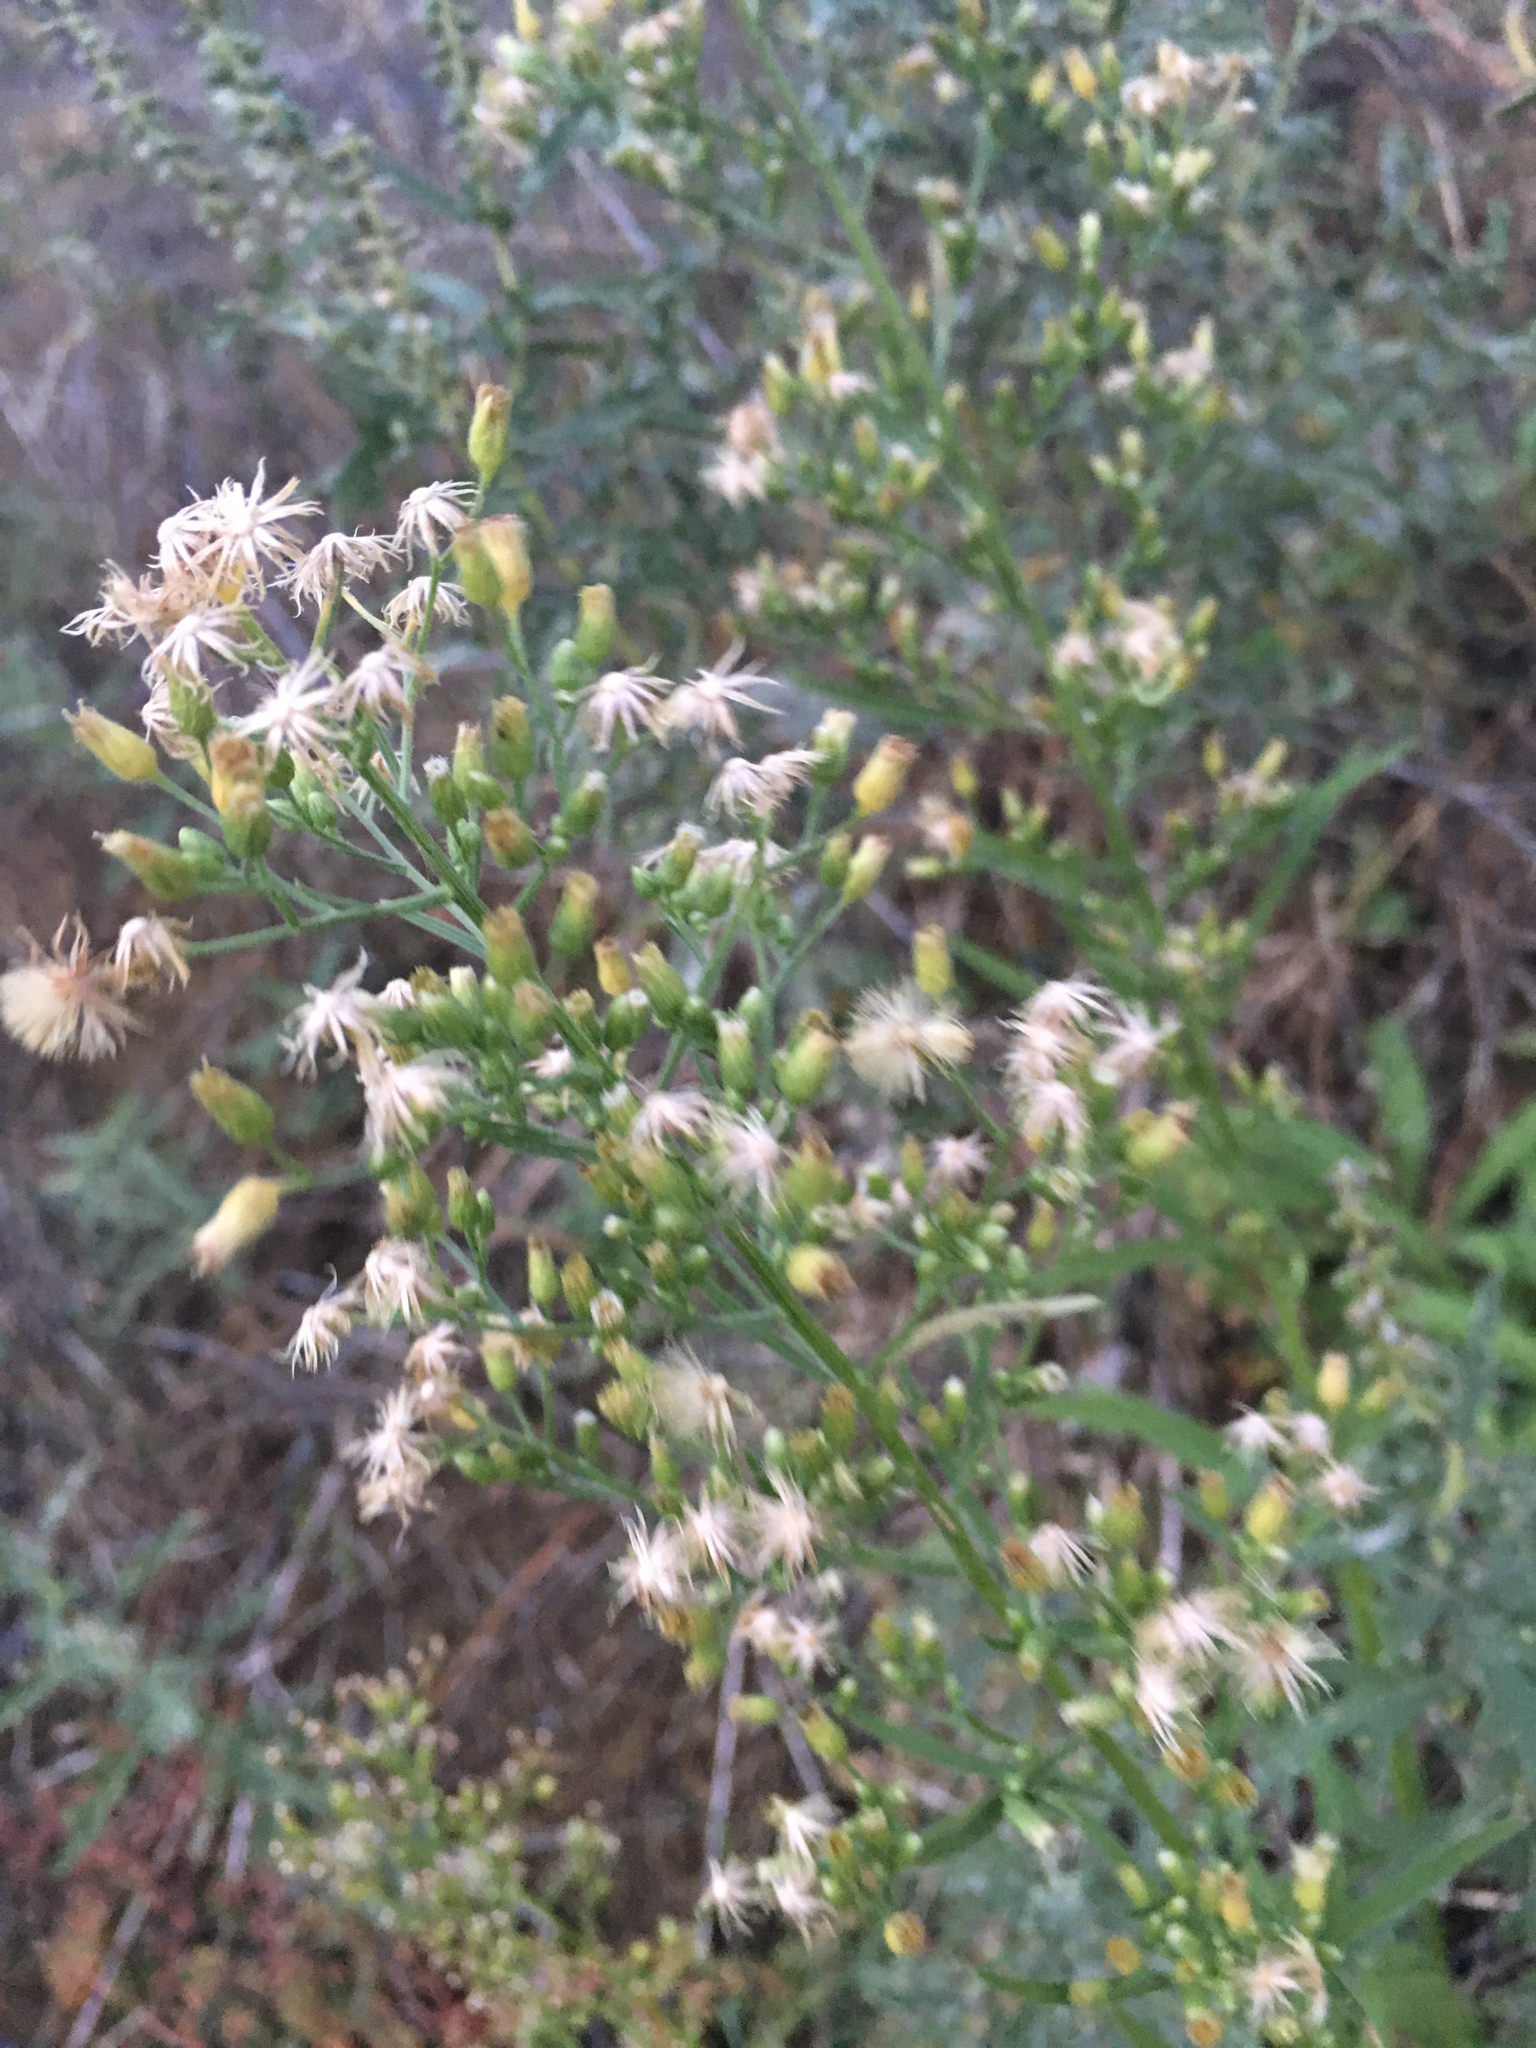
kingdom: Plantae
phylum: Tracheophyta
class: Magnoliopsida
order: Asterales
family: Asteraceae
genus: Erigeron
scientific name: Erigeron canadensis
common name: Canadian fleabane
